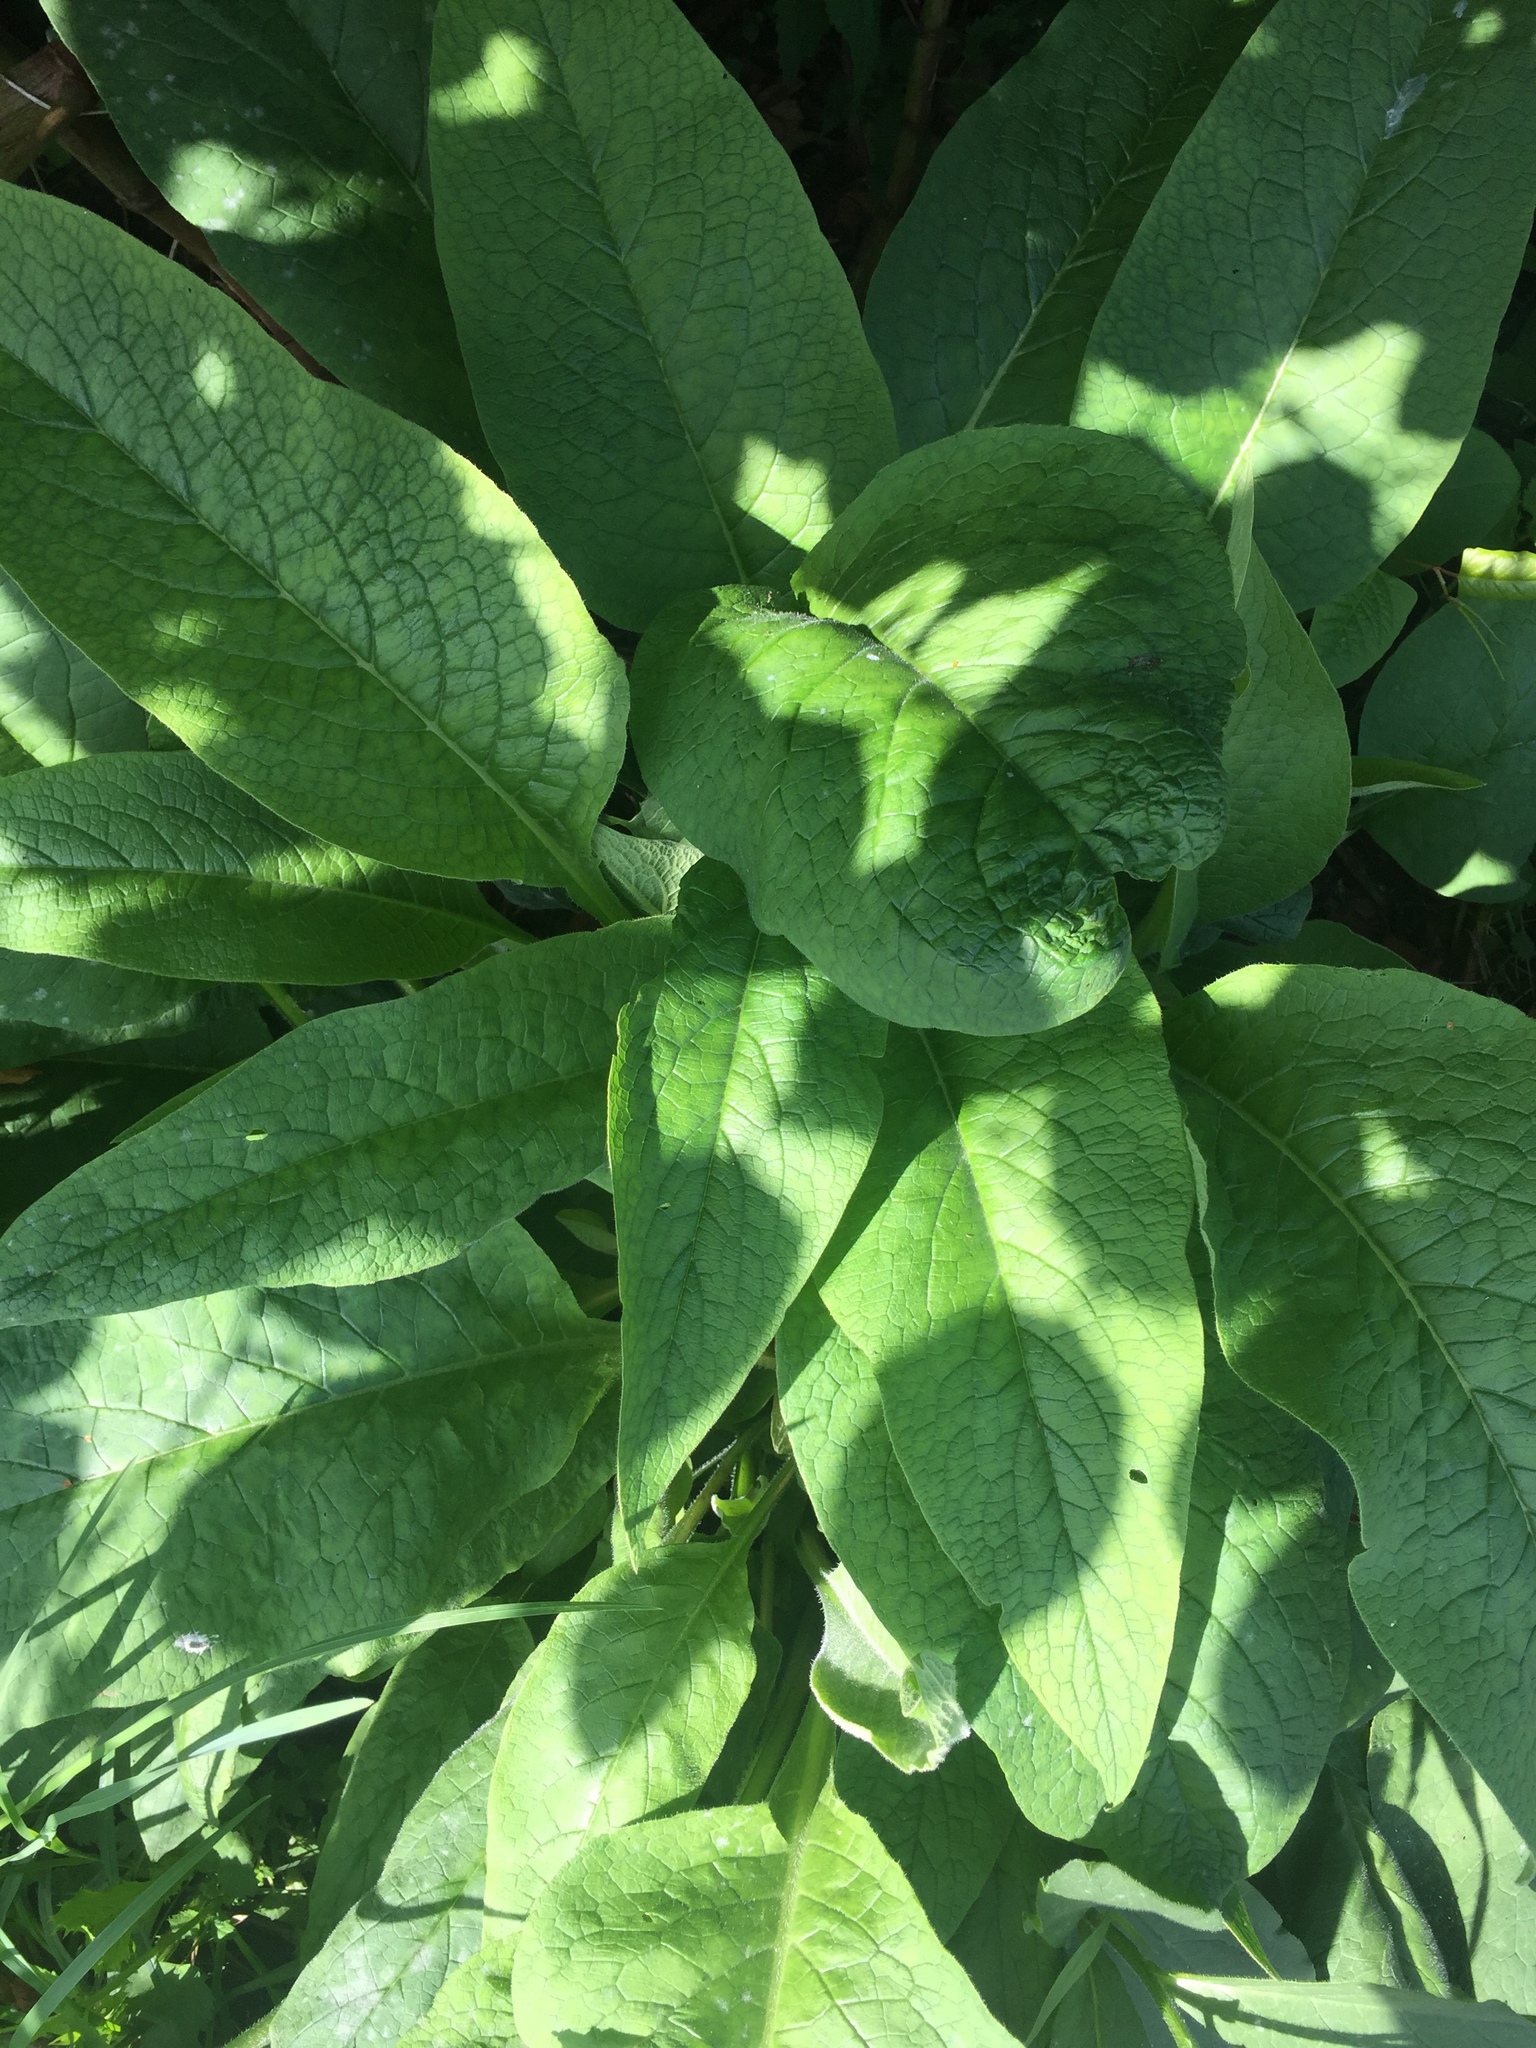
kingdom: Plantae
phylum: Tracheophyta
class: Magnoliopsida
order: Boraginales
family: Boraginaceae
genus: Symphytum
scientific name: Symphytum officinale
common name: Common comfrey
